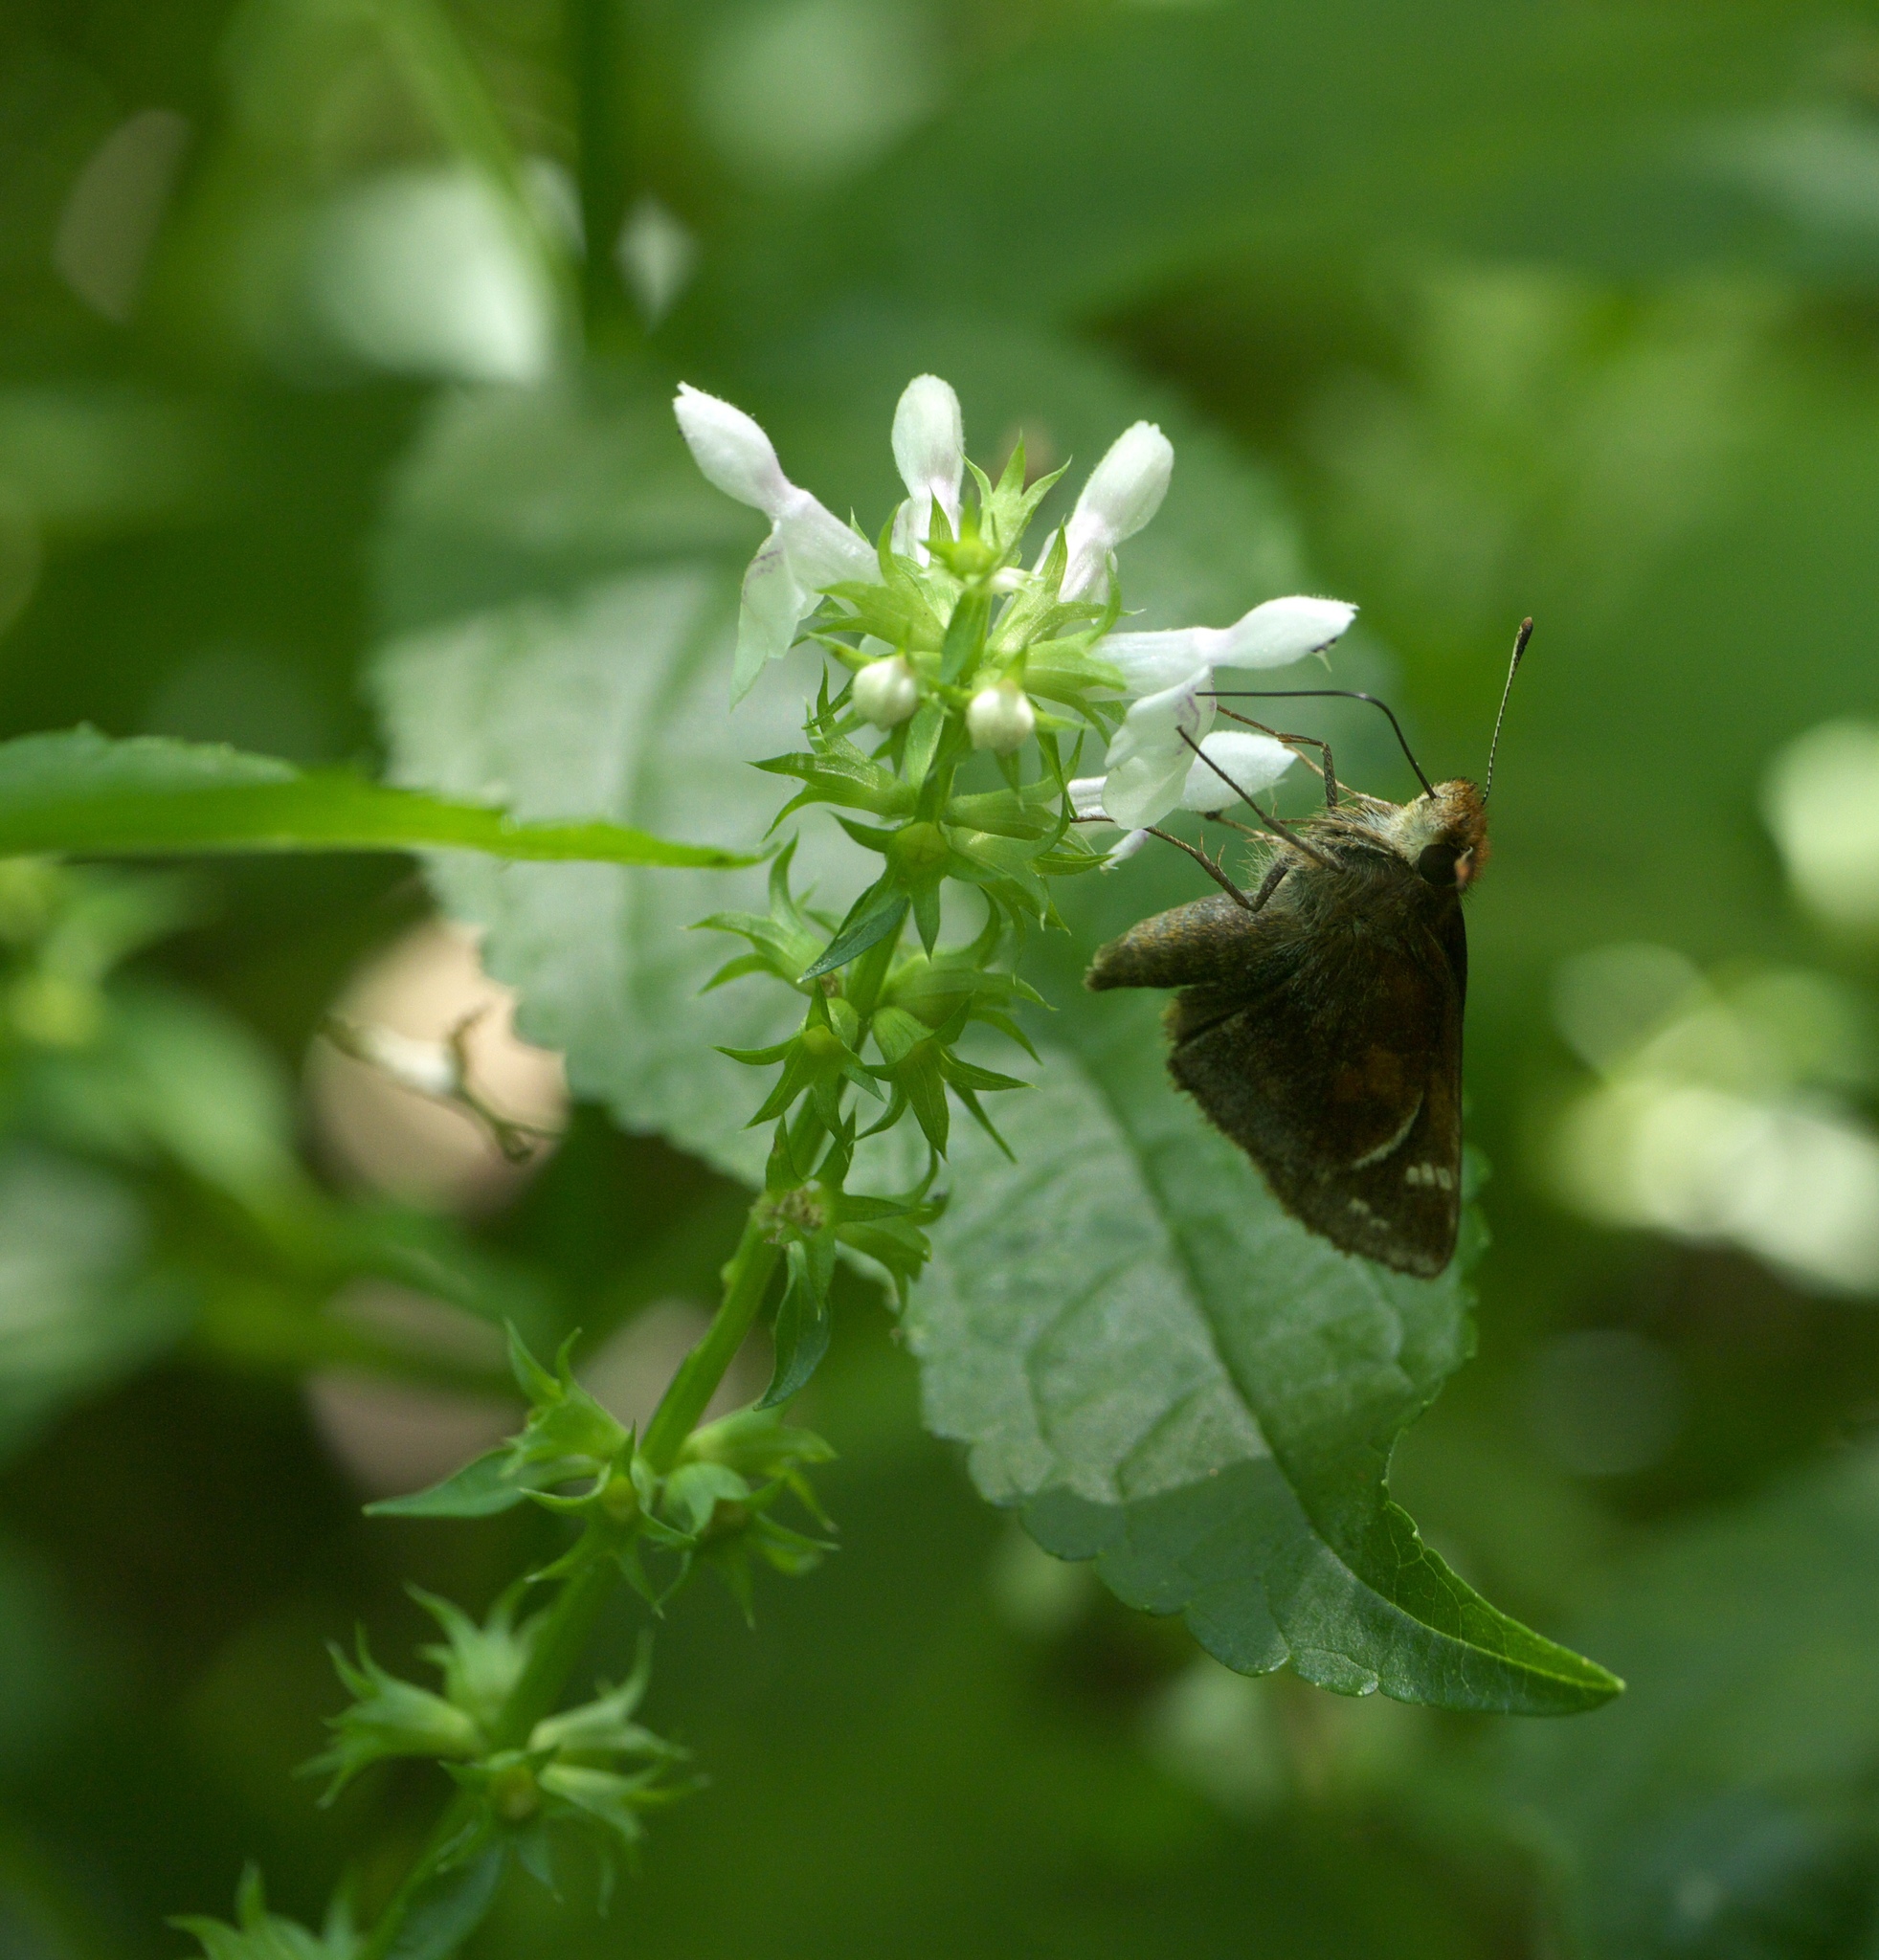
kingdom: Plantae
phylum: Tracheophyta
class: Magnoliopsida
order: Lamiales
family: Lamiaceae
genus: Stachys
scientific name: Stachys tenuifolia
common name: Smooth hedge-nettle
